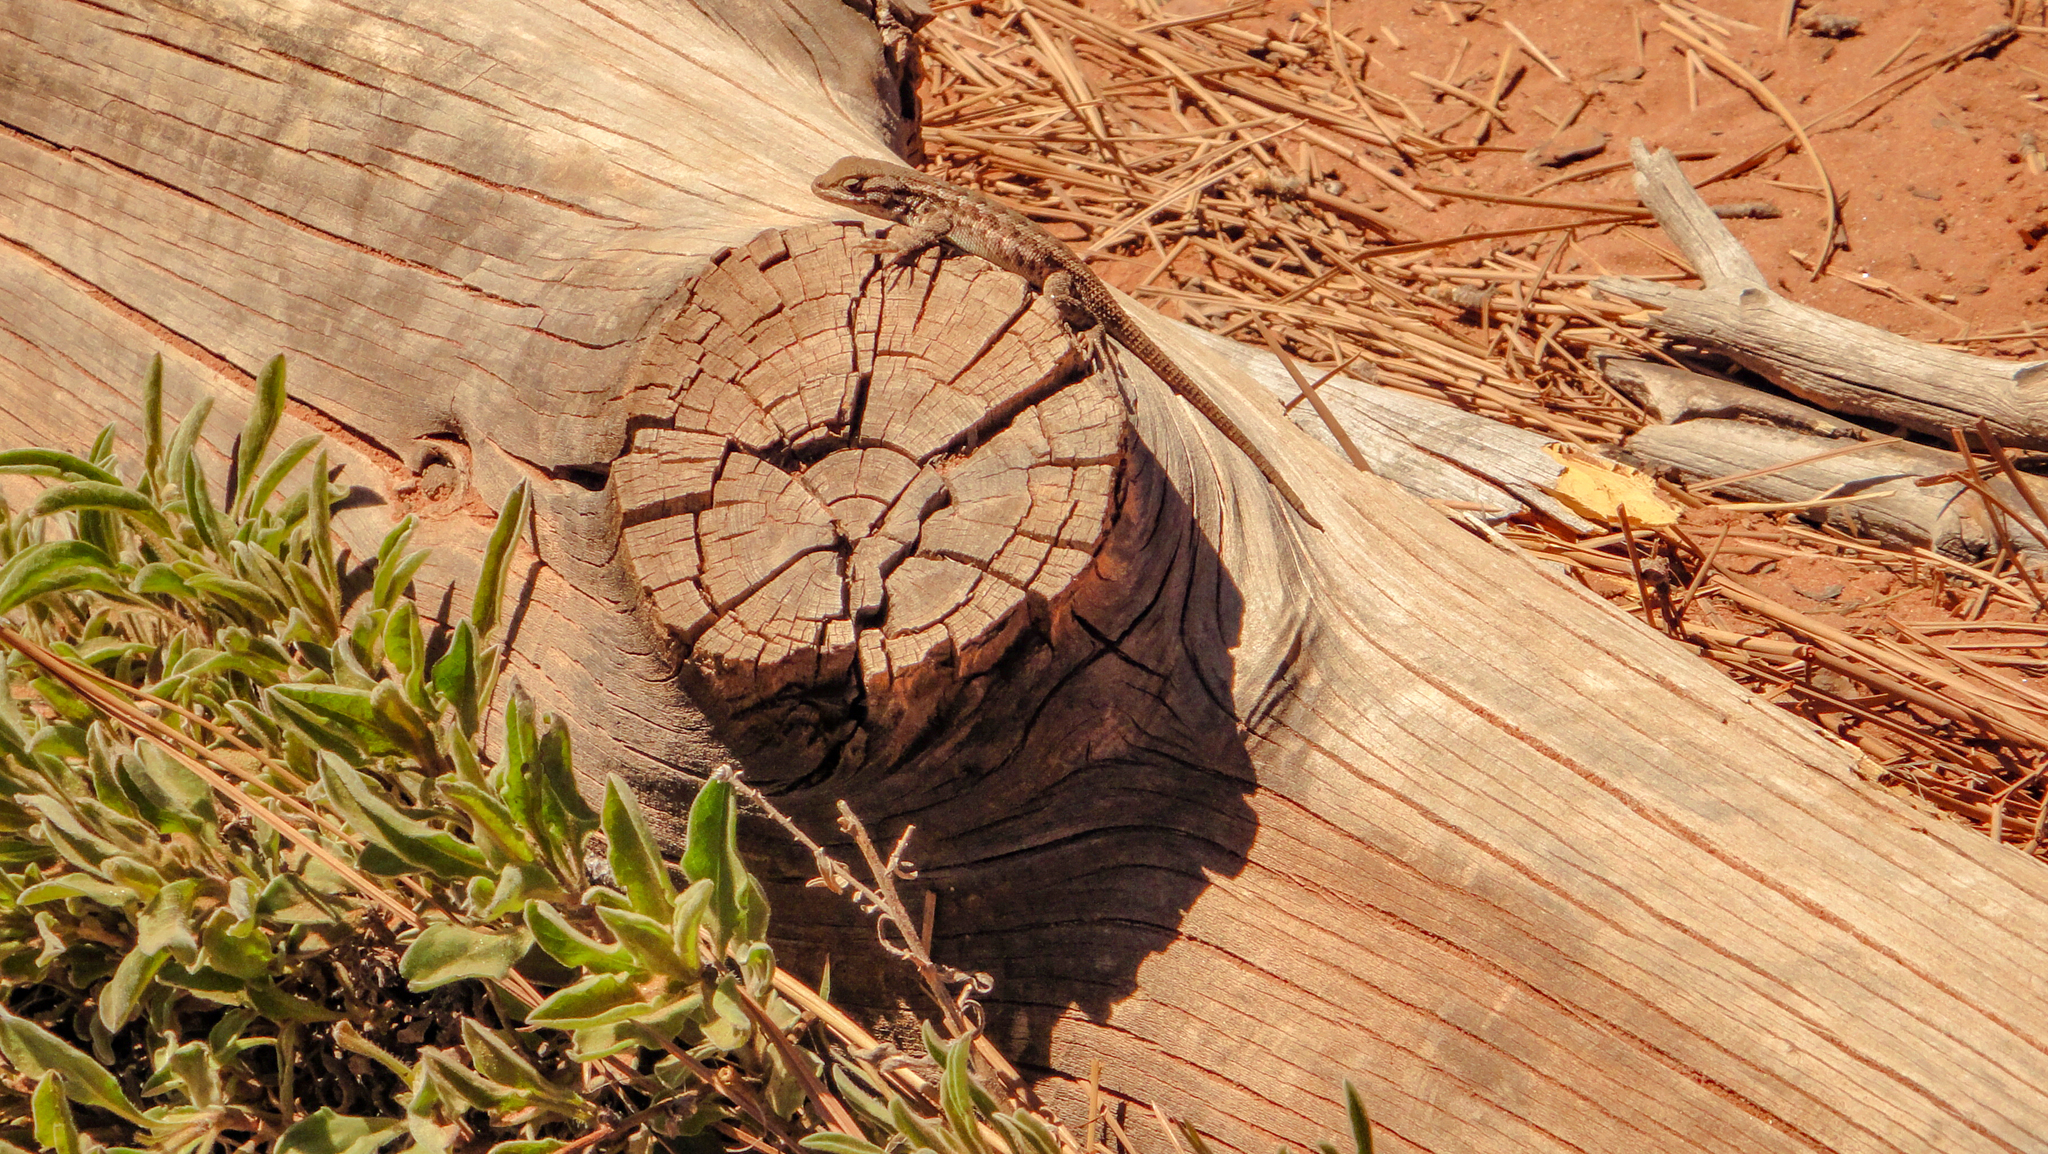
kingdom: Animalia
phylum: Chordata
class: Squamata
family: Phrynosomatidae
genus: Sceloporus
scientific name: Sceloporus tristichus
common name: Plateau fence lizard
